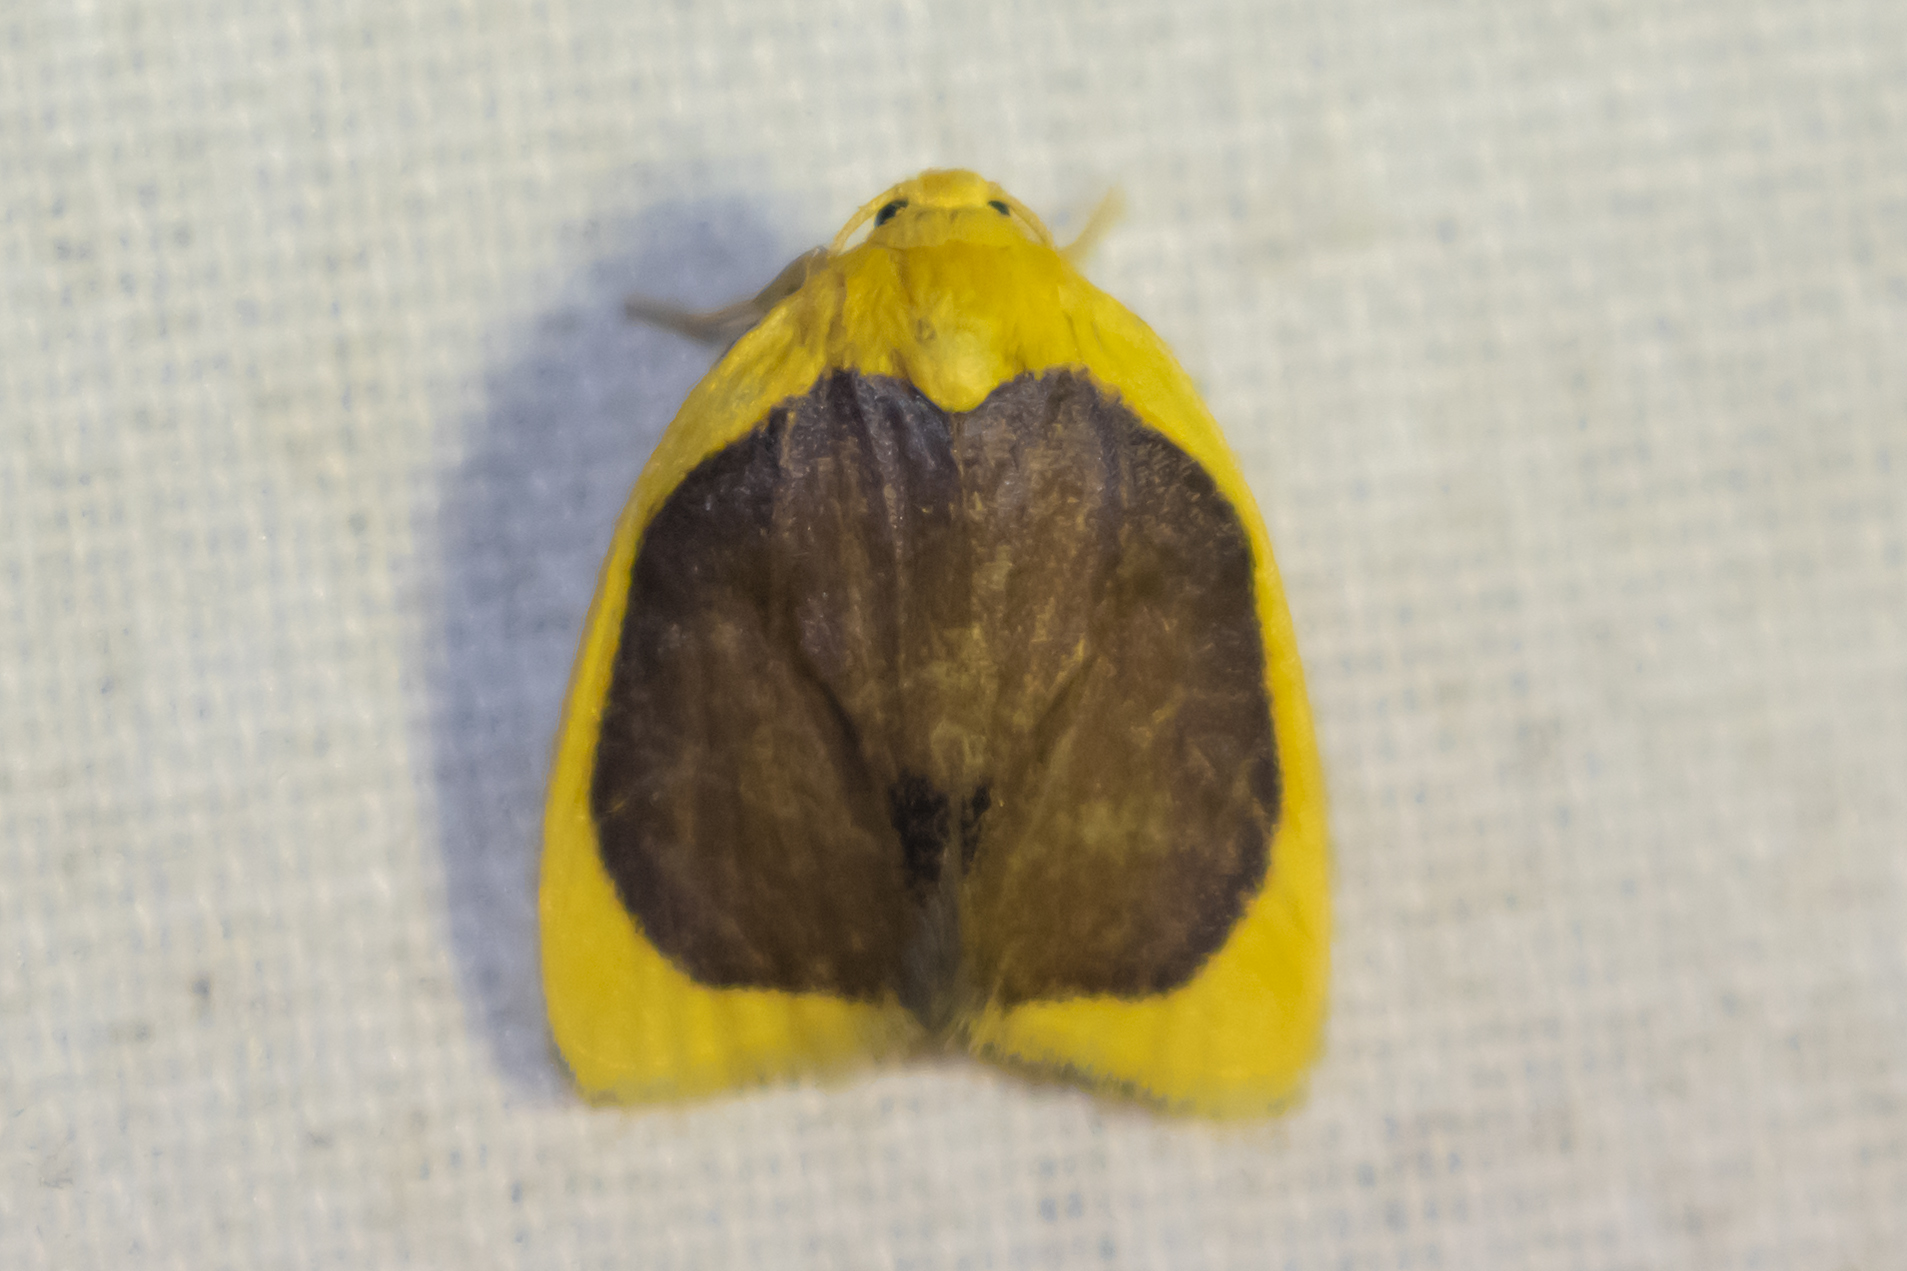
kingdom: Animalia
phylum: Arthropoda
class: Insecta
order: Lepidoptera
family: Erebidae
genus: Pronola
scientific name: Pronola magniplaga
